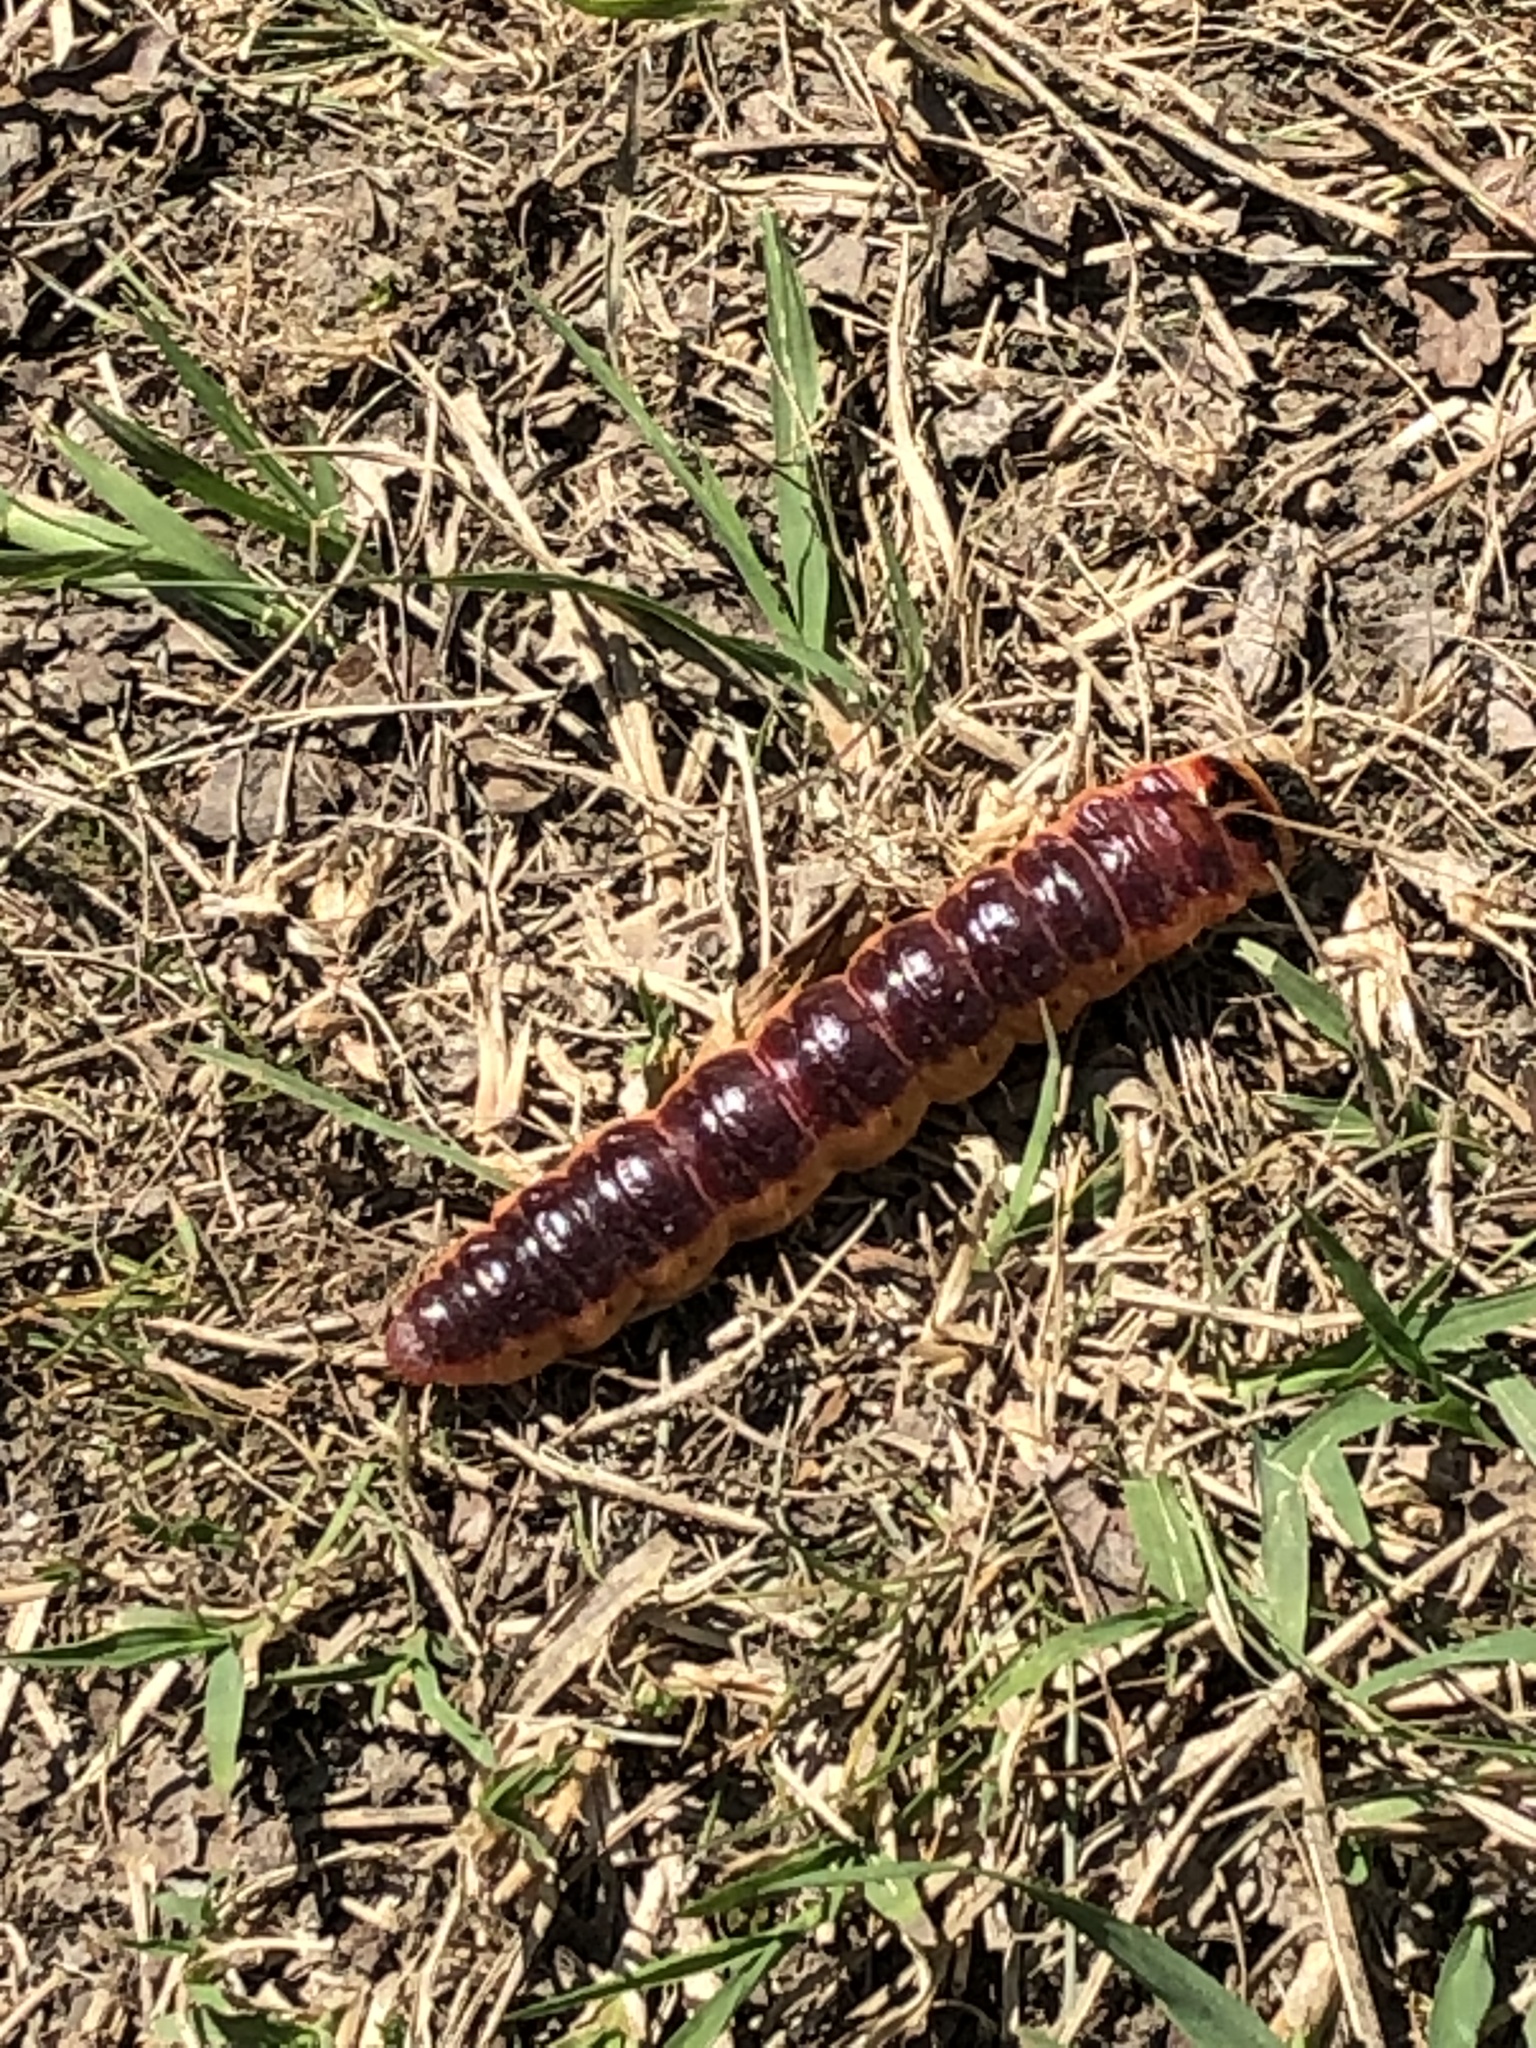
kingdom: Animalia
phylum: Arthropoda
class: Insecta
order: Lepidoptera
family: Cossidae
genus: Cossus
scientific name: Cossus cossus
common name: Goat moth
